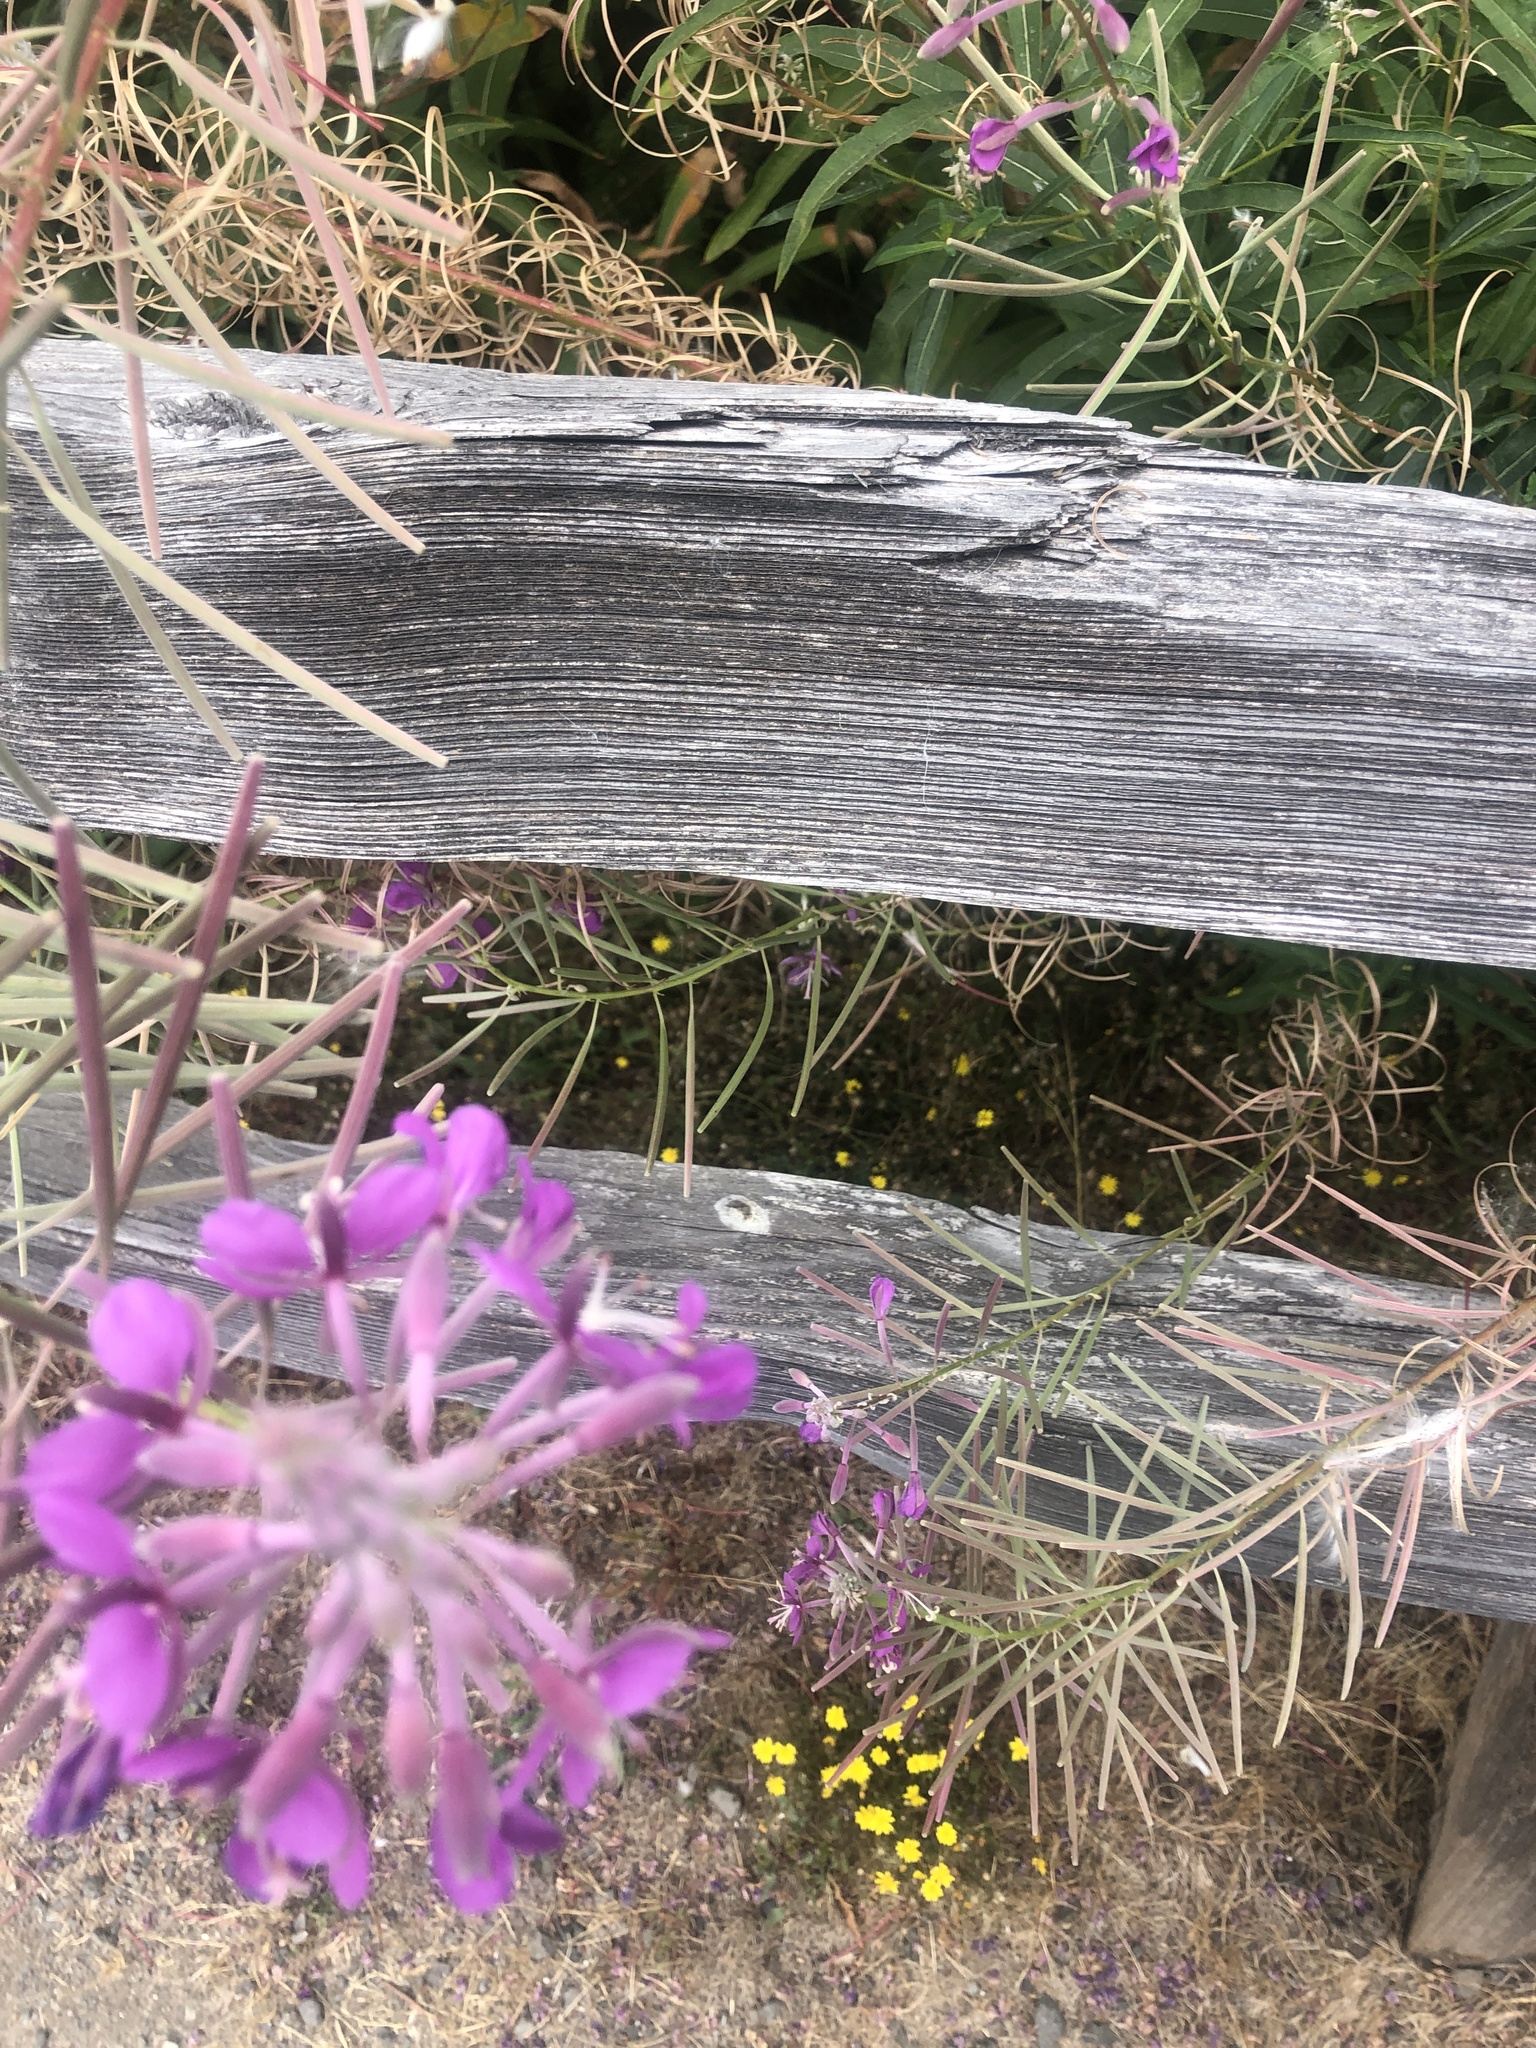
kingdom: Plantae
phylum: Tracheophyta
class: Magnoliopsida
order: Myrtales
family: Onagraceae
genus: Chamaenerion
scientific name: Chamaenerion angustifolium
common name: Fireweed
